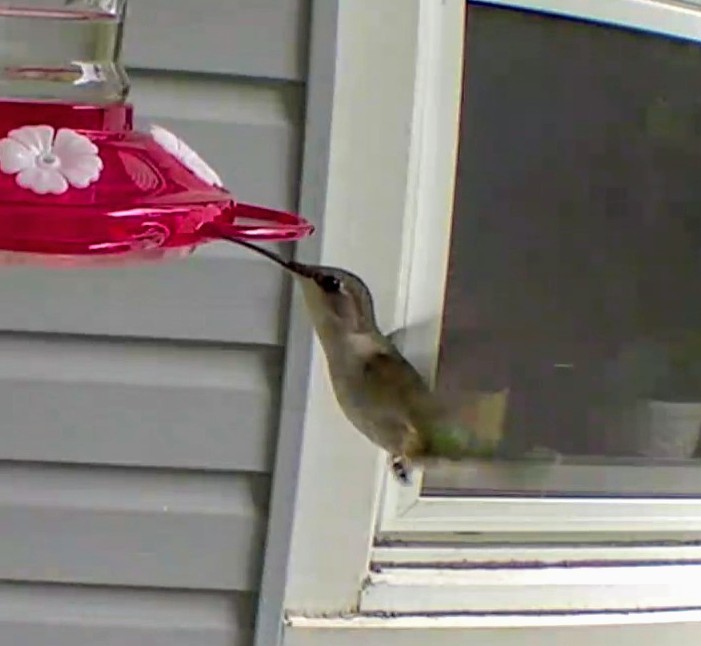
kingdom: Animalia
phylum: Chordata
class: Aves
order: Apodiformes
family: Trochilidae
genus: Archilochus
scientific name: Archilochus colubris
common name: Ruby-throated hummingbird
